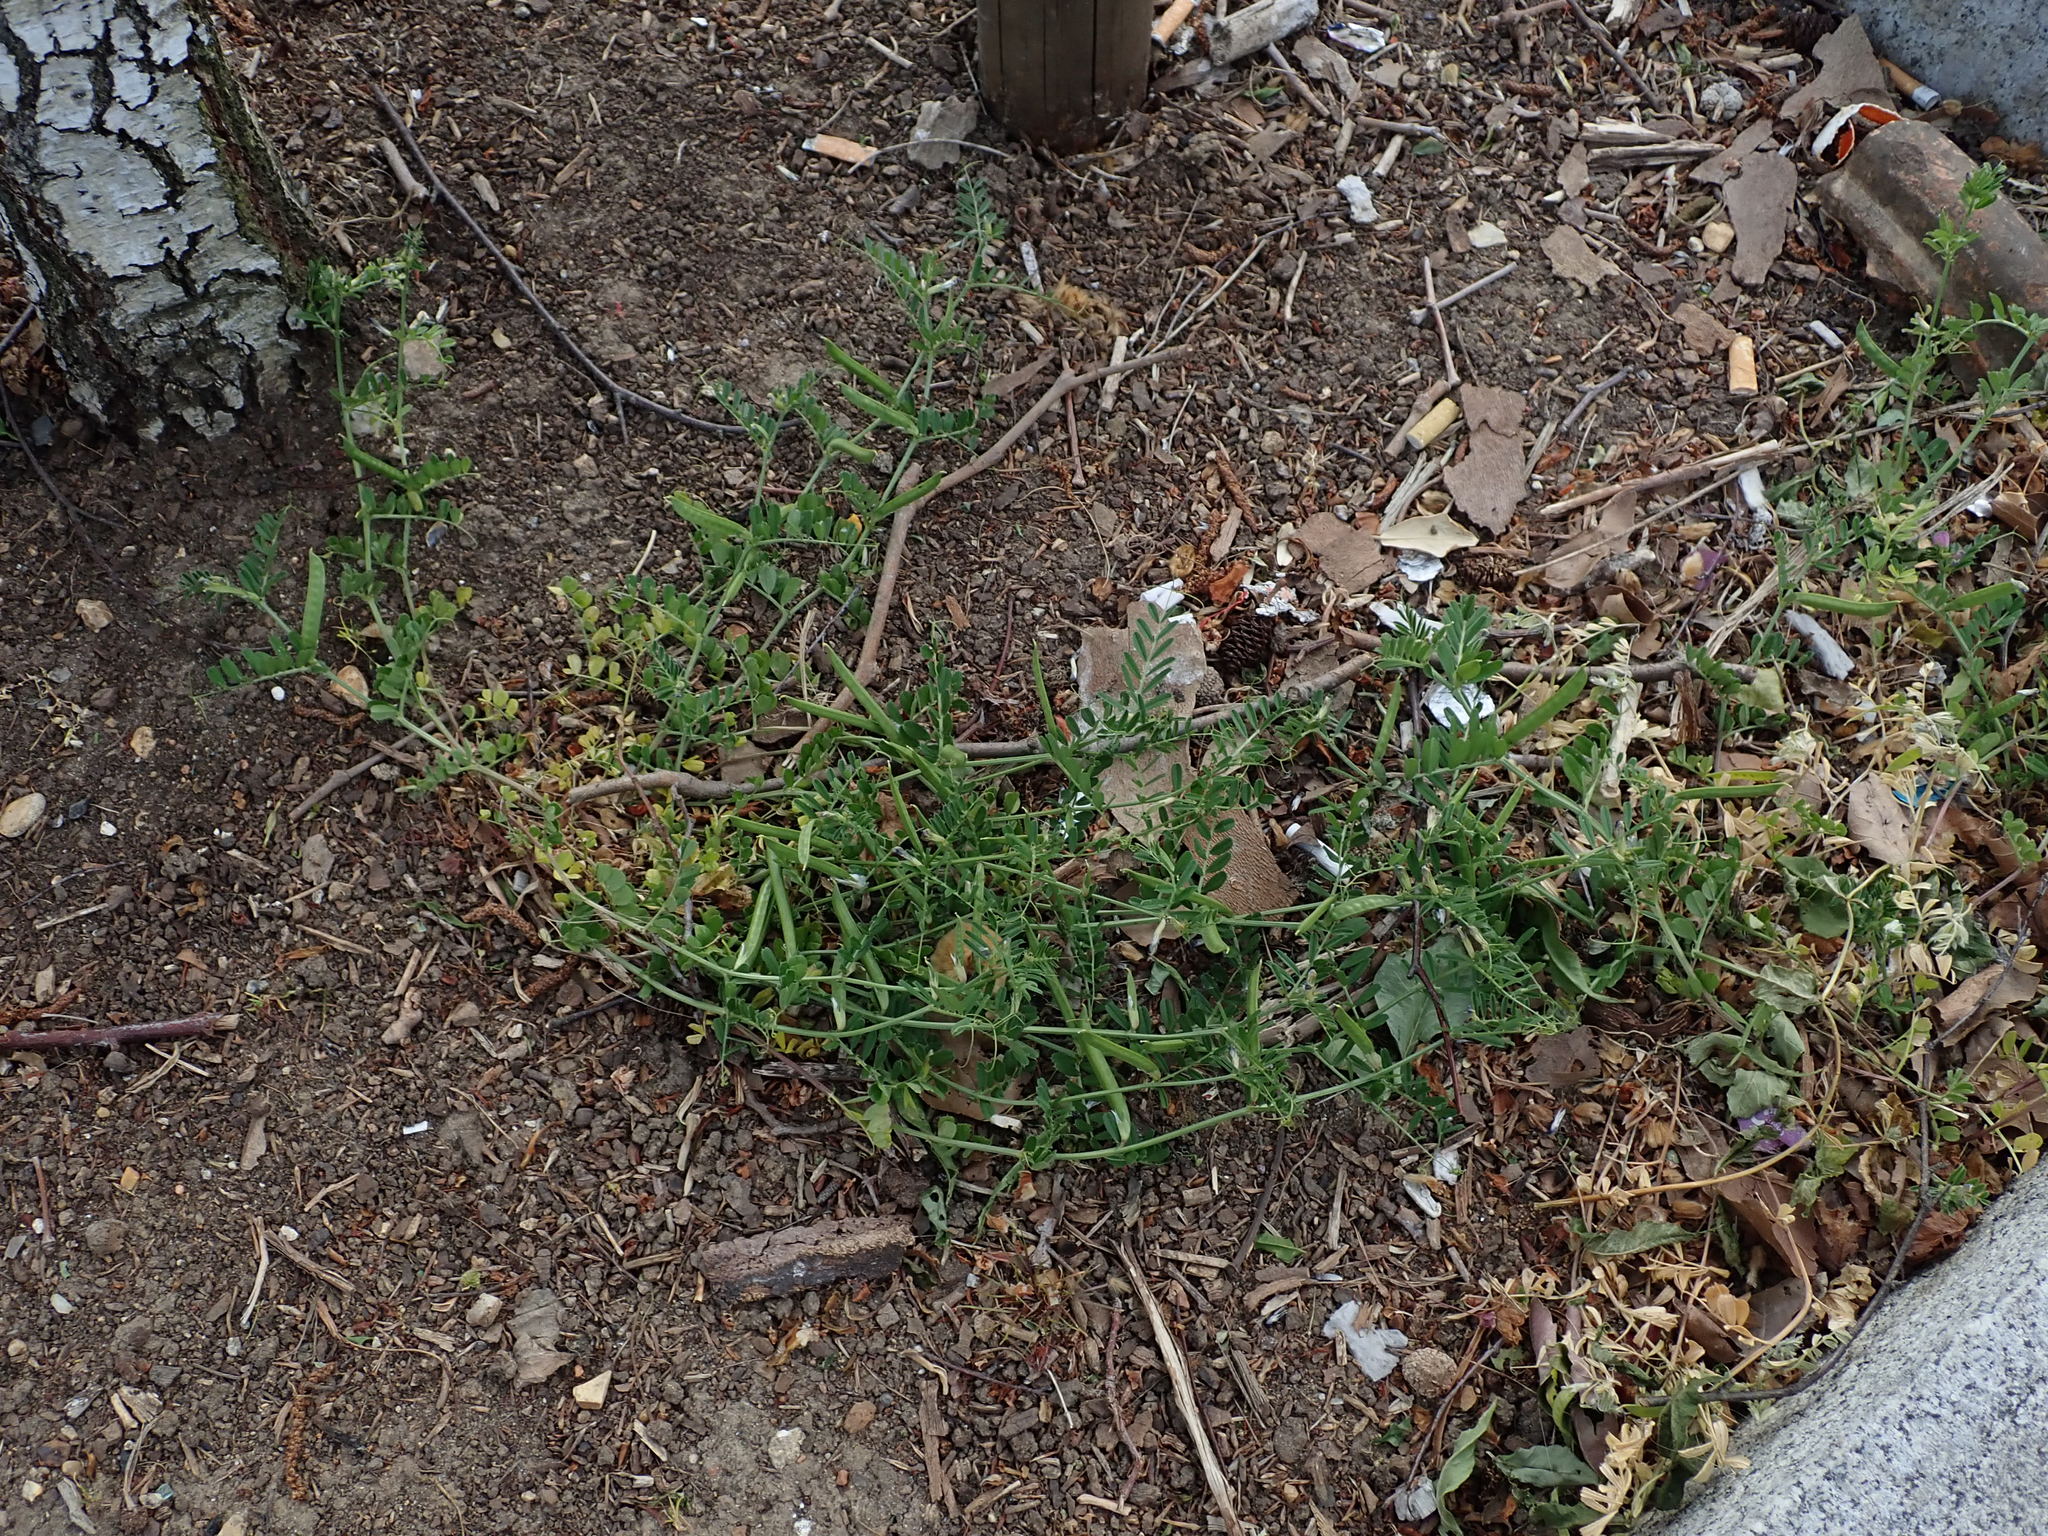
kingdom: Plantae
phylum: Tracheophyta
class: Magnoliopsida
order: Fabales
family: Fabaceae
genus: Vicia
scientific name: Vicia sativa
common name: Garden vetch
